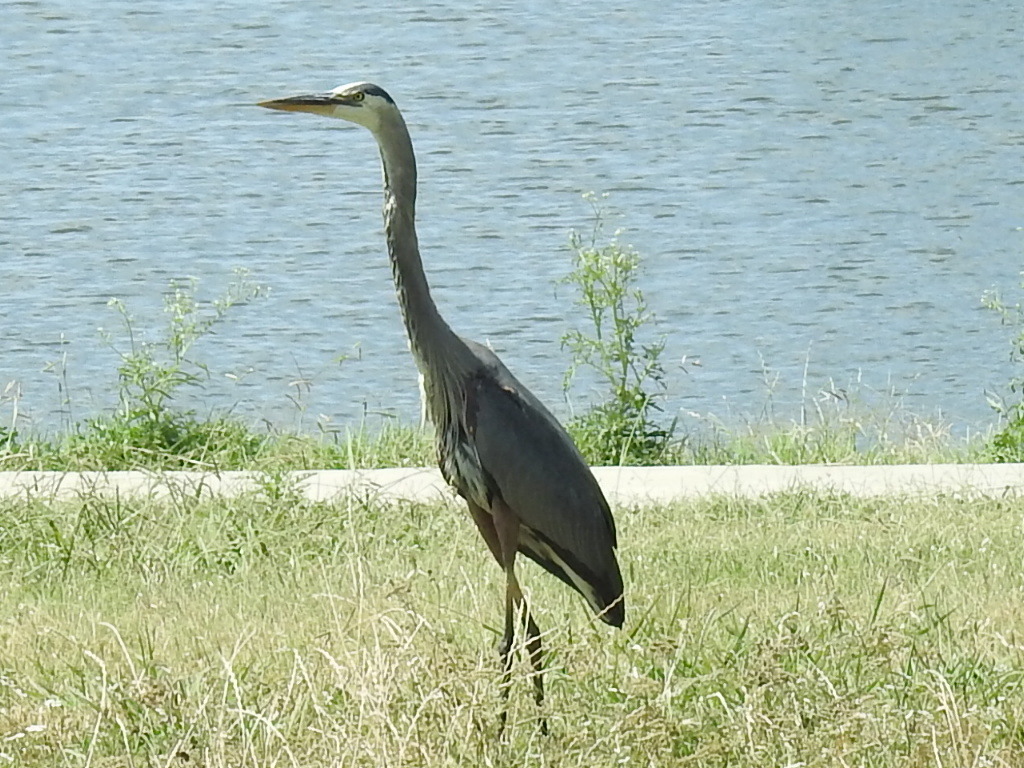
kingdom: Animalia
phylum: Chordata
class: Aves
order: Pelecaniformes
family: Ardeidae
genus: Ardea
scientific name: Ardea herodias
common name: Great blue heron
